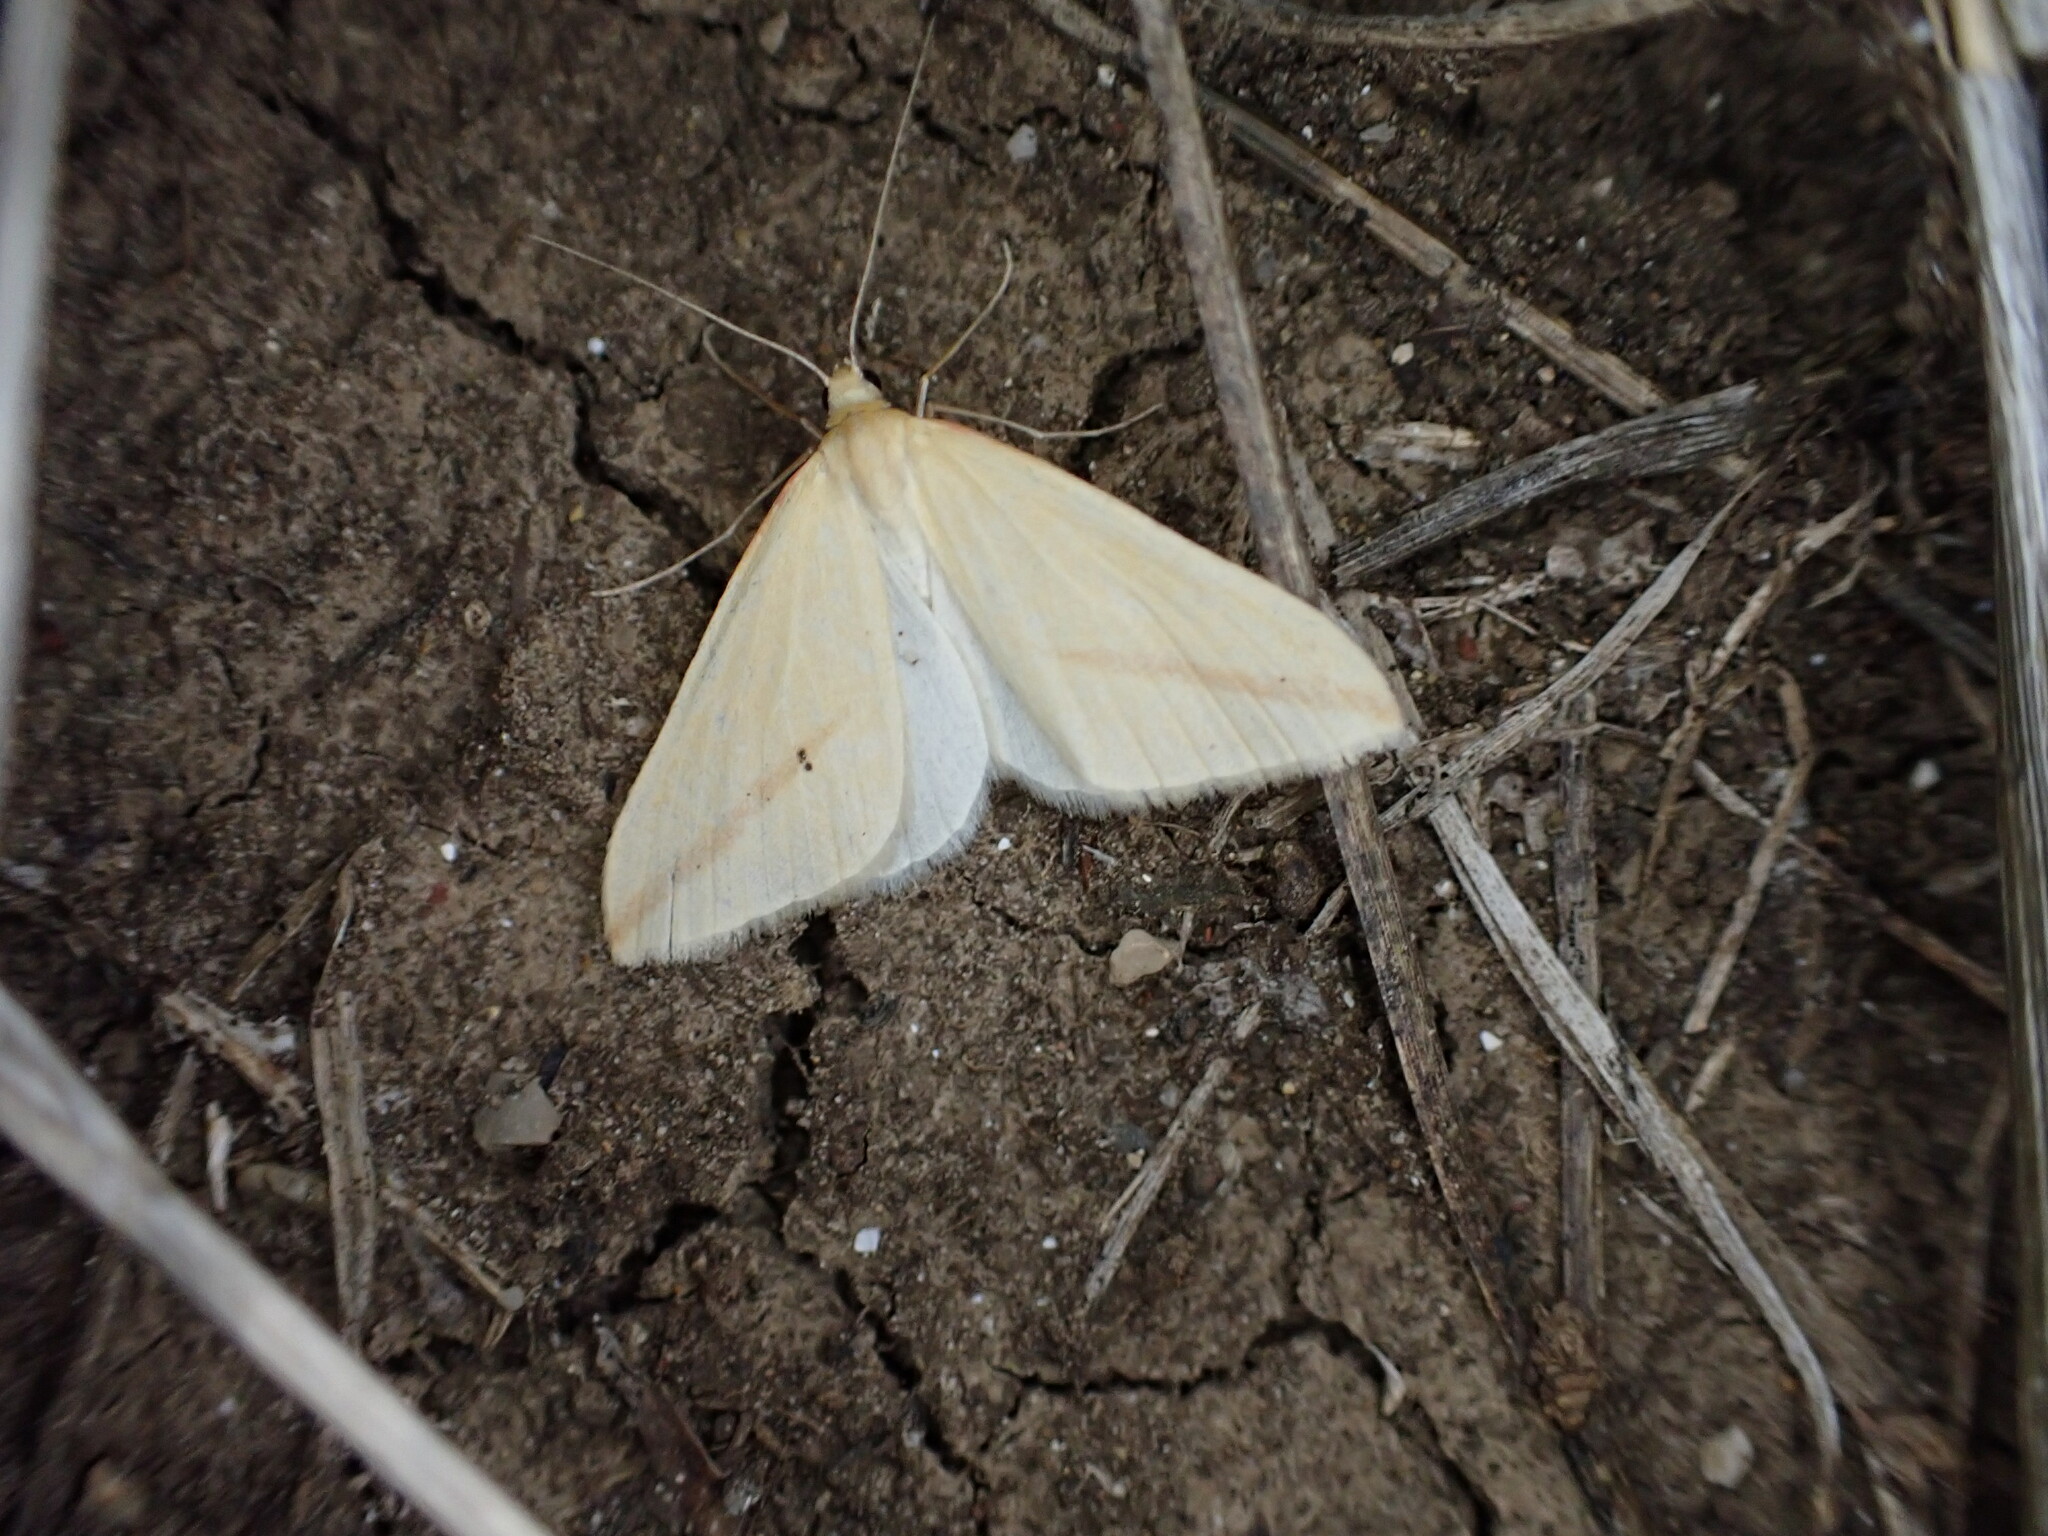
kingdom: Animalia
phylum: Arthropoda
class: Insecta
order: Lepidoptera
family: Geometridae
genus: Rhodometra
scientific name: Rhodometra sacraria
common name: Vestal
